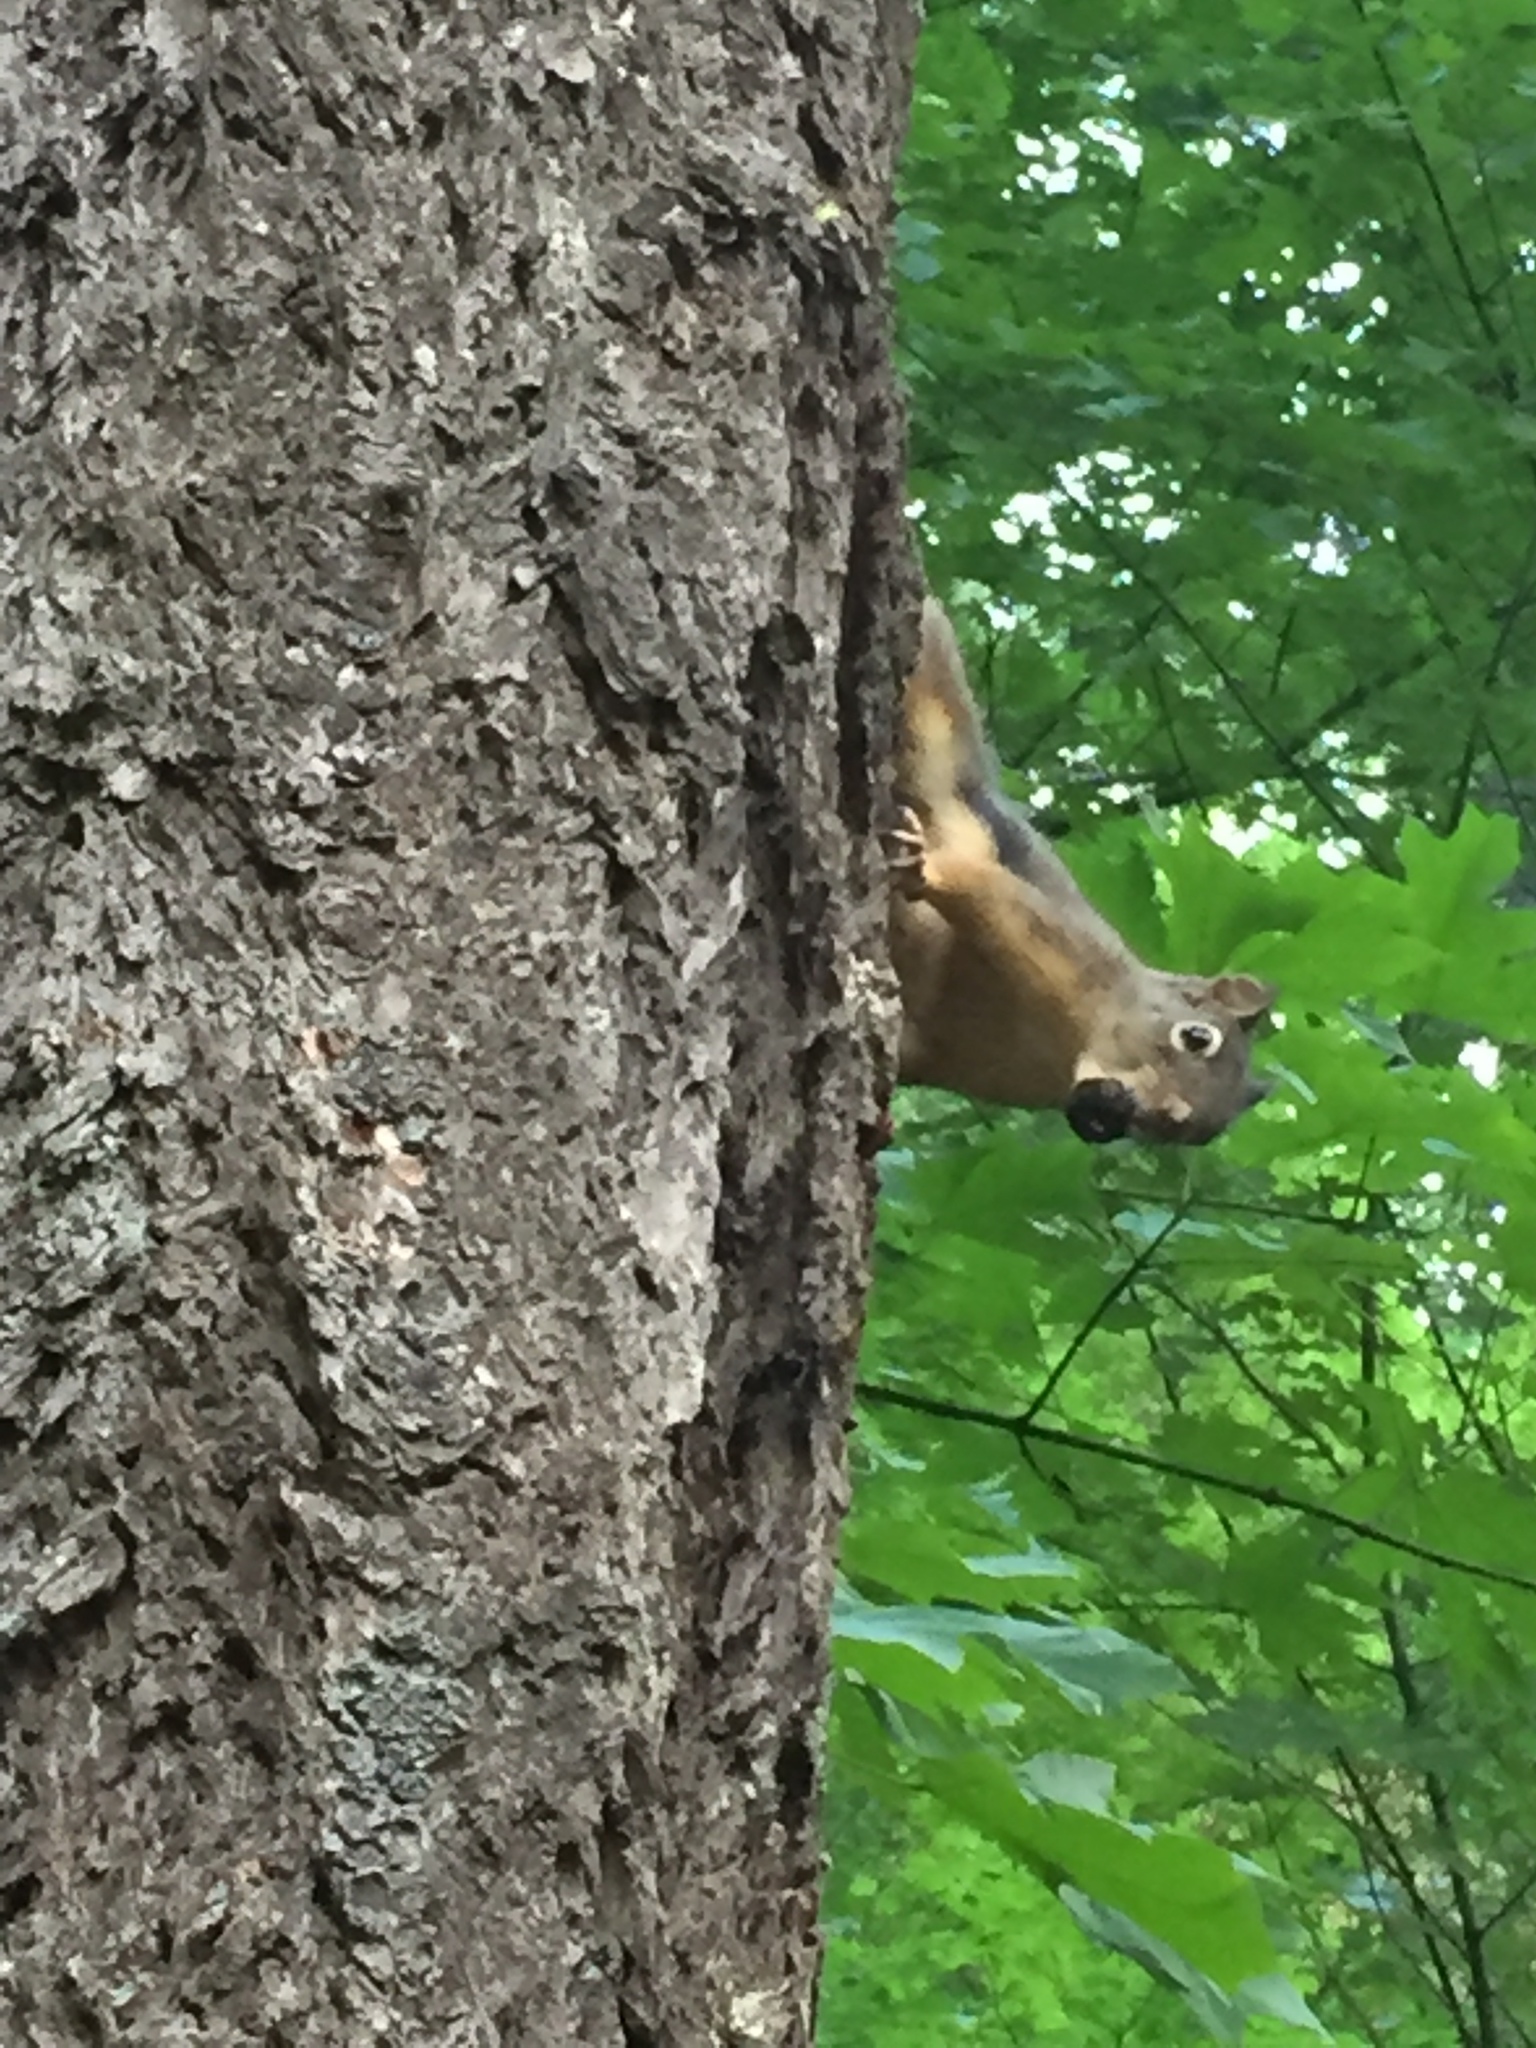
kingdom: Animalia
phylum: Chordata
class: Mammalia
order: Rodentia
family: Sciuridae
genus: Tamiasciurus
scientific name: Tamiasciurus douglasii
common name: Douglas's squirrel
